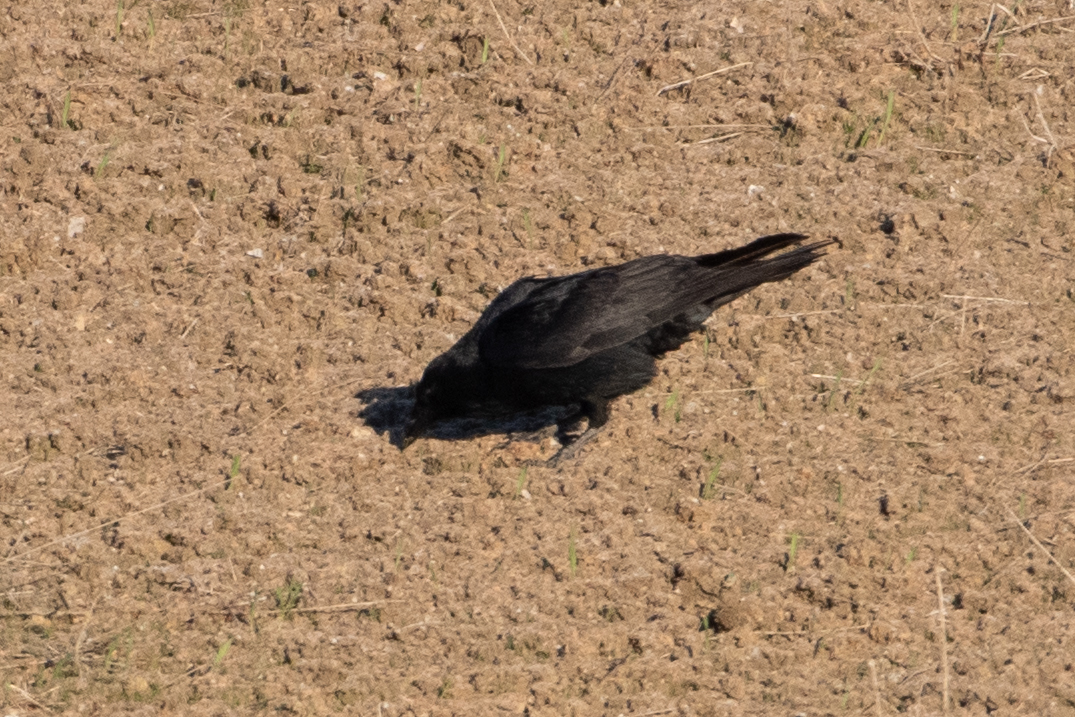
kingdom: Animalia
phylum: Chordata
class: Aves
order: Passeriformes
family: Corvidae
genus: Corvus
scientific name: Corvus corax
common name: Common raven
